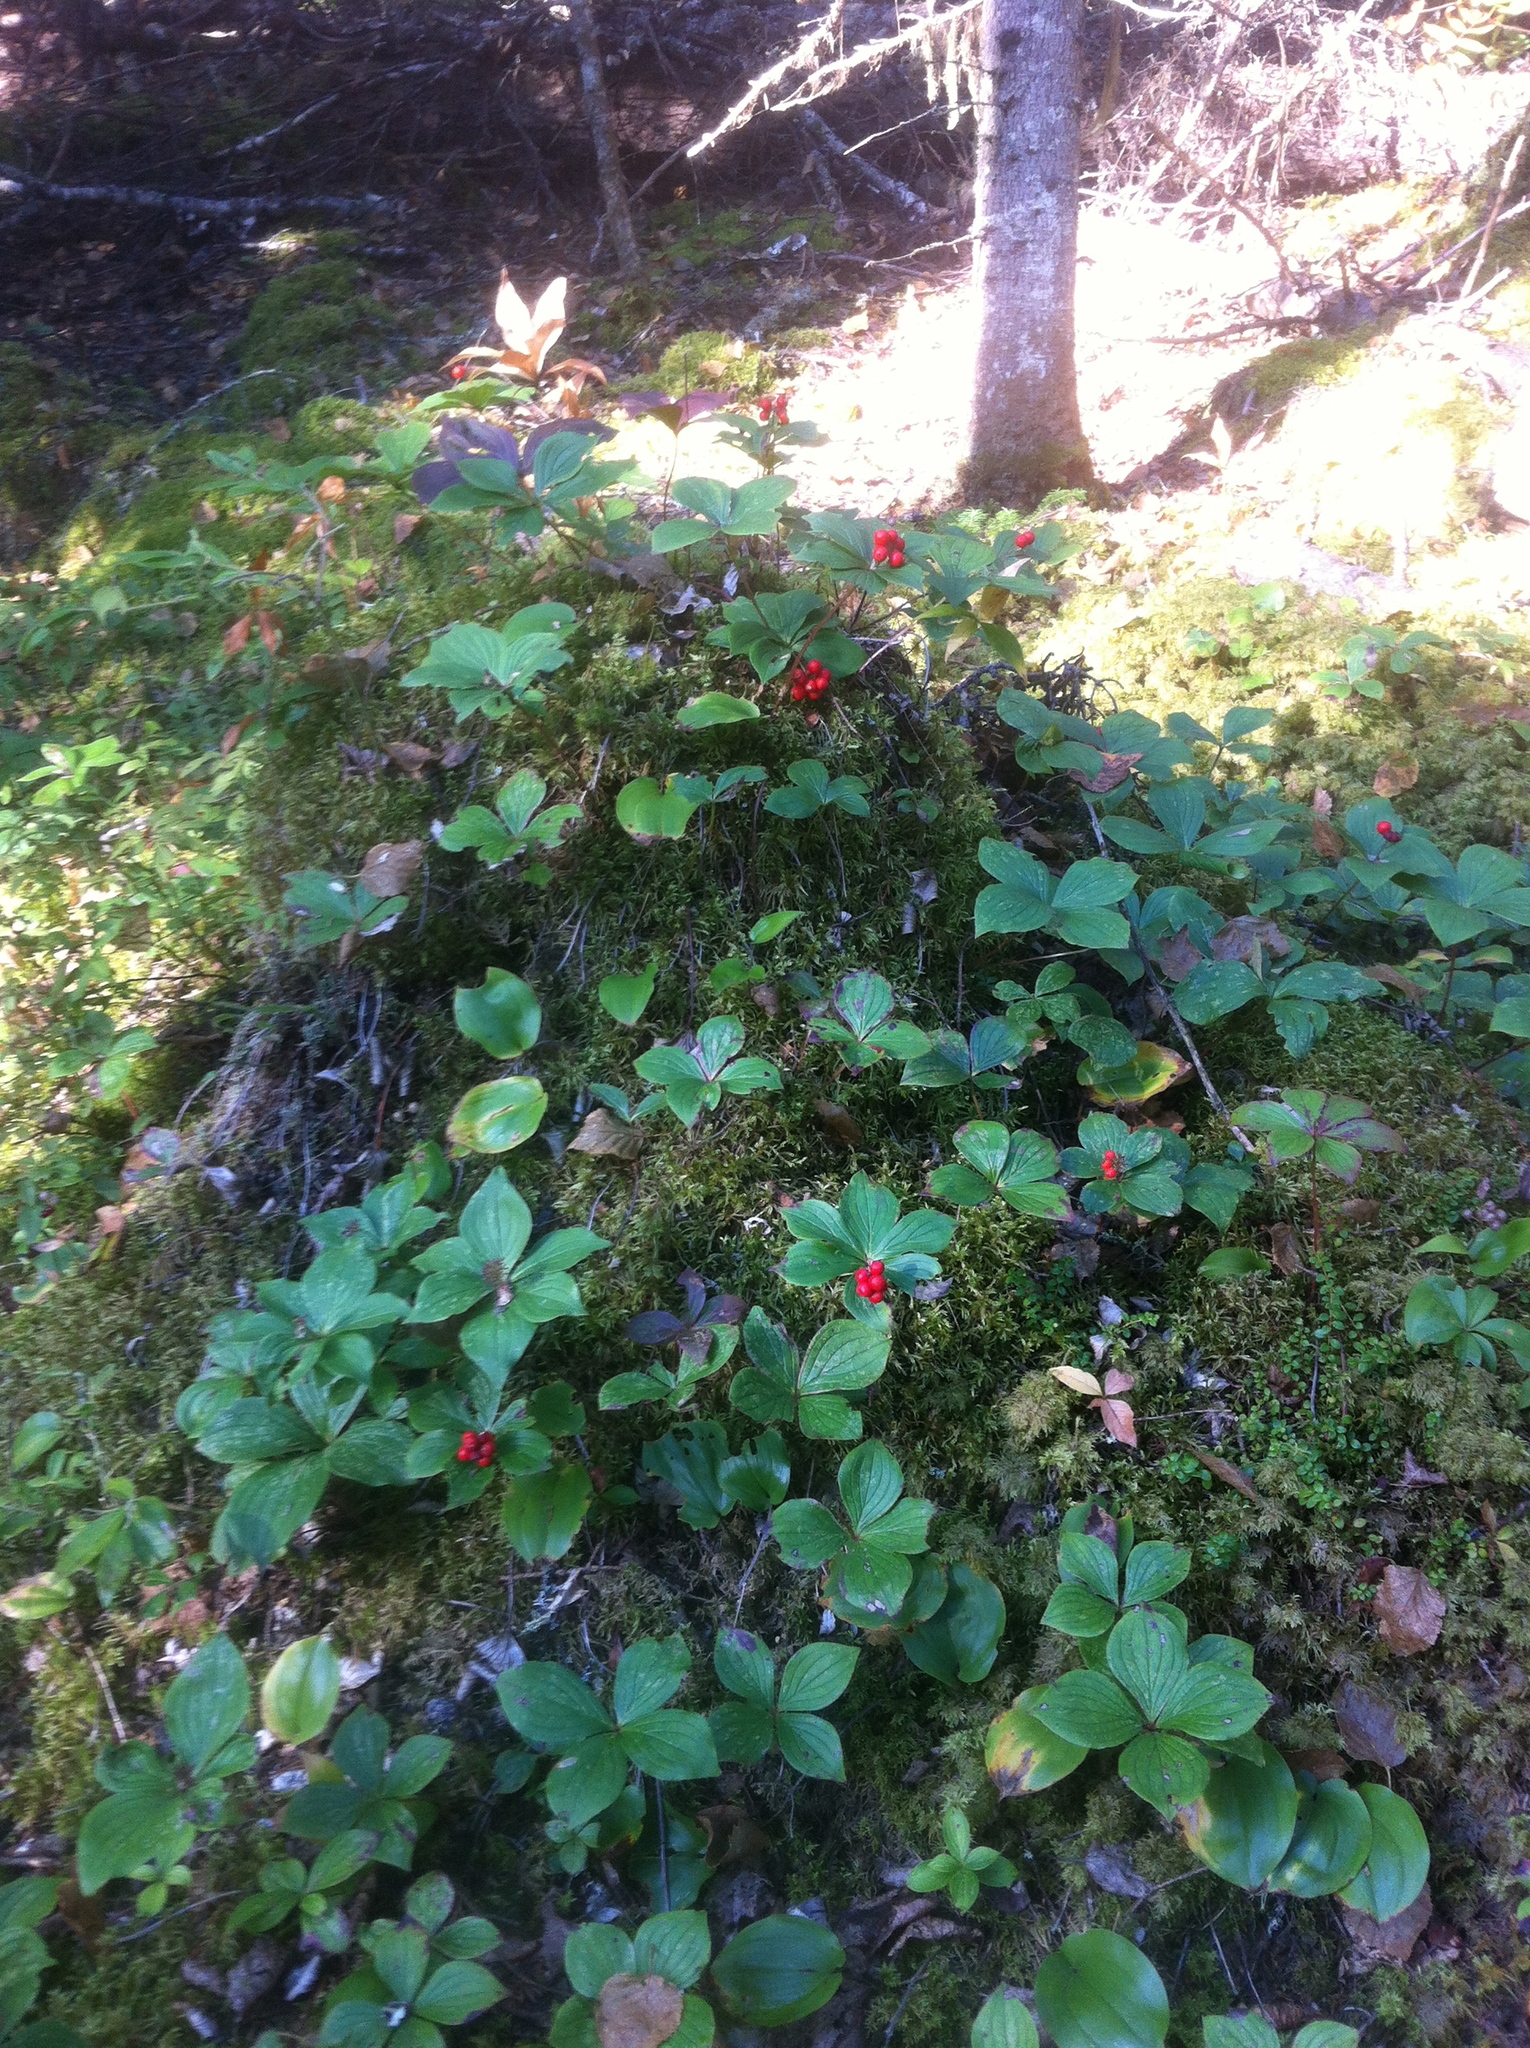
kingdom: Plantae
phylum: Tracheophyta
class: Magnoliopsida
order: Cornales
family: Cornaceae
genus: Cornus
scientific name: Cornus canadensis
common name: Creeping dogwood
